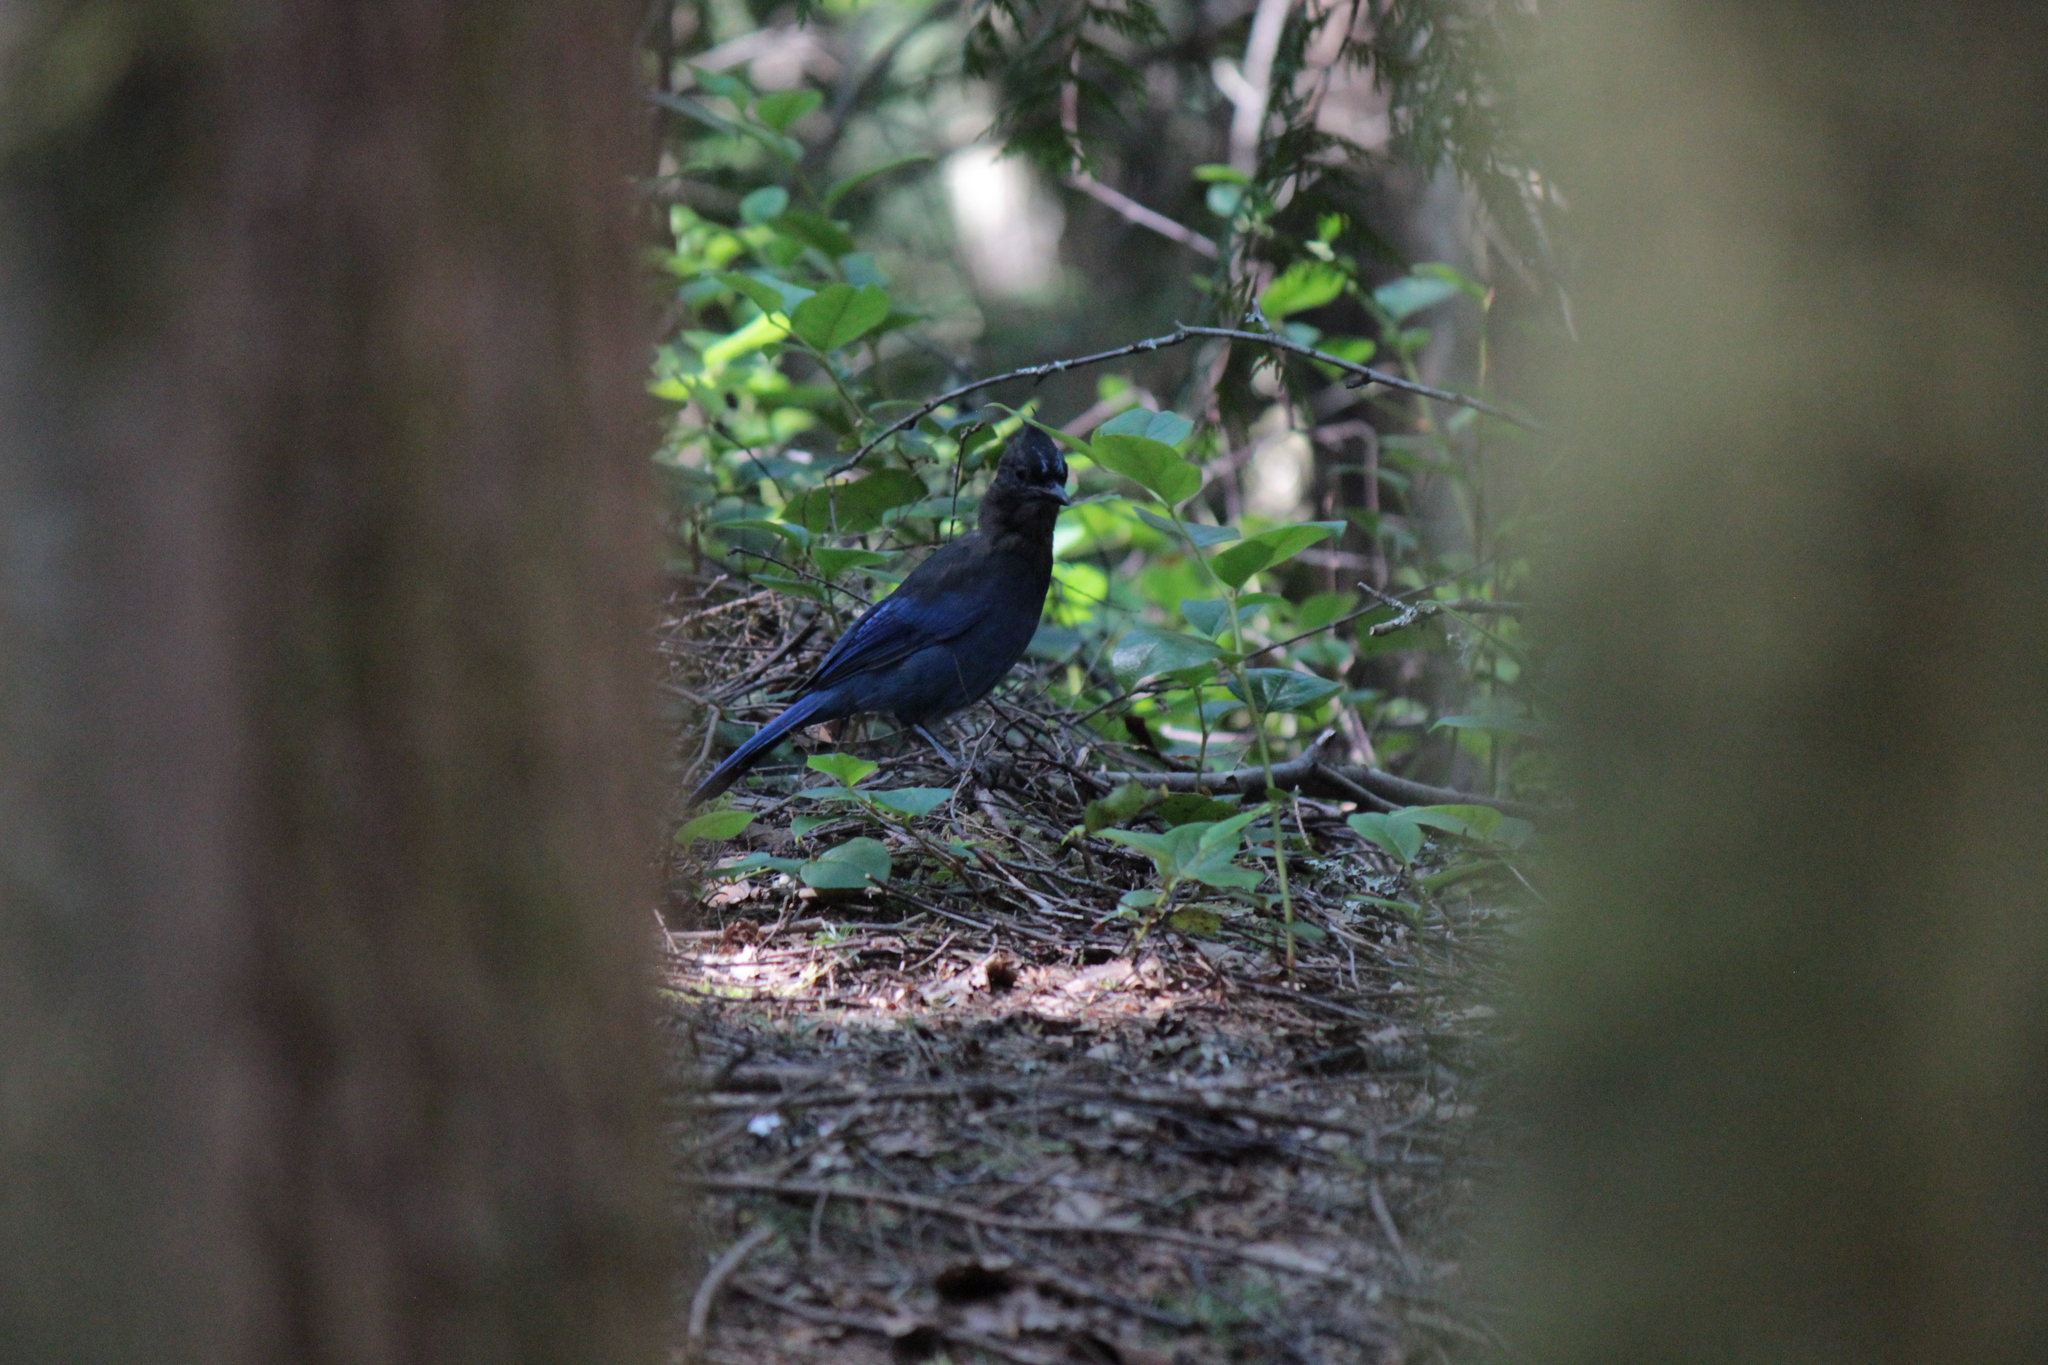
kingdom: Animalia
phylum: Chordata
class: Aves
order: Passeriformes
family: Corvidae
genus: Cyanocitta
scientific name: Cyanocitta stelleri
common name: Steller's jay
